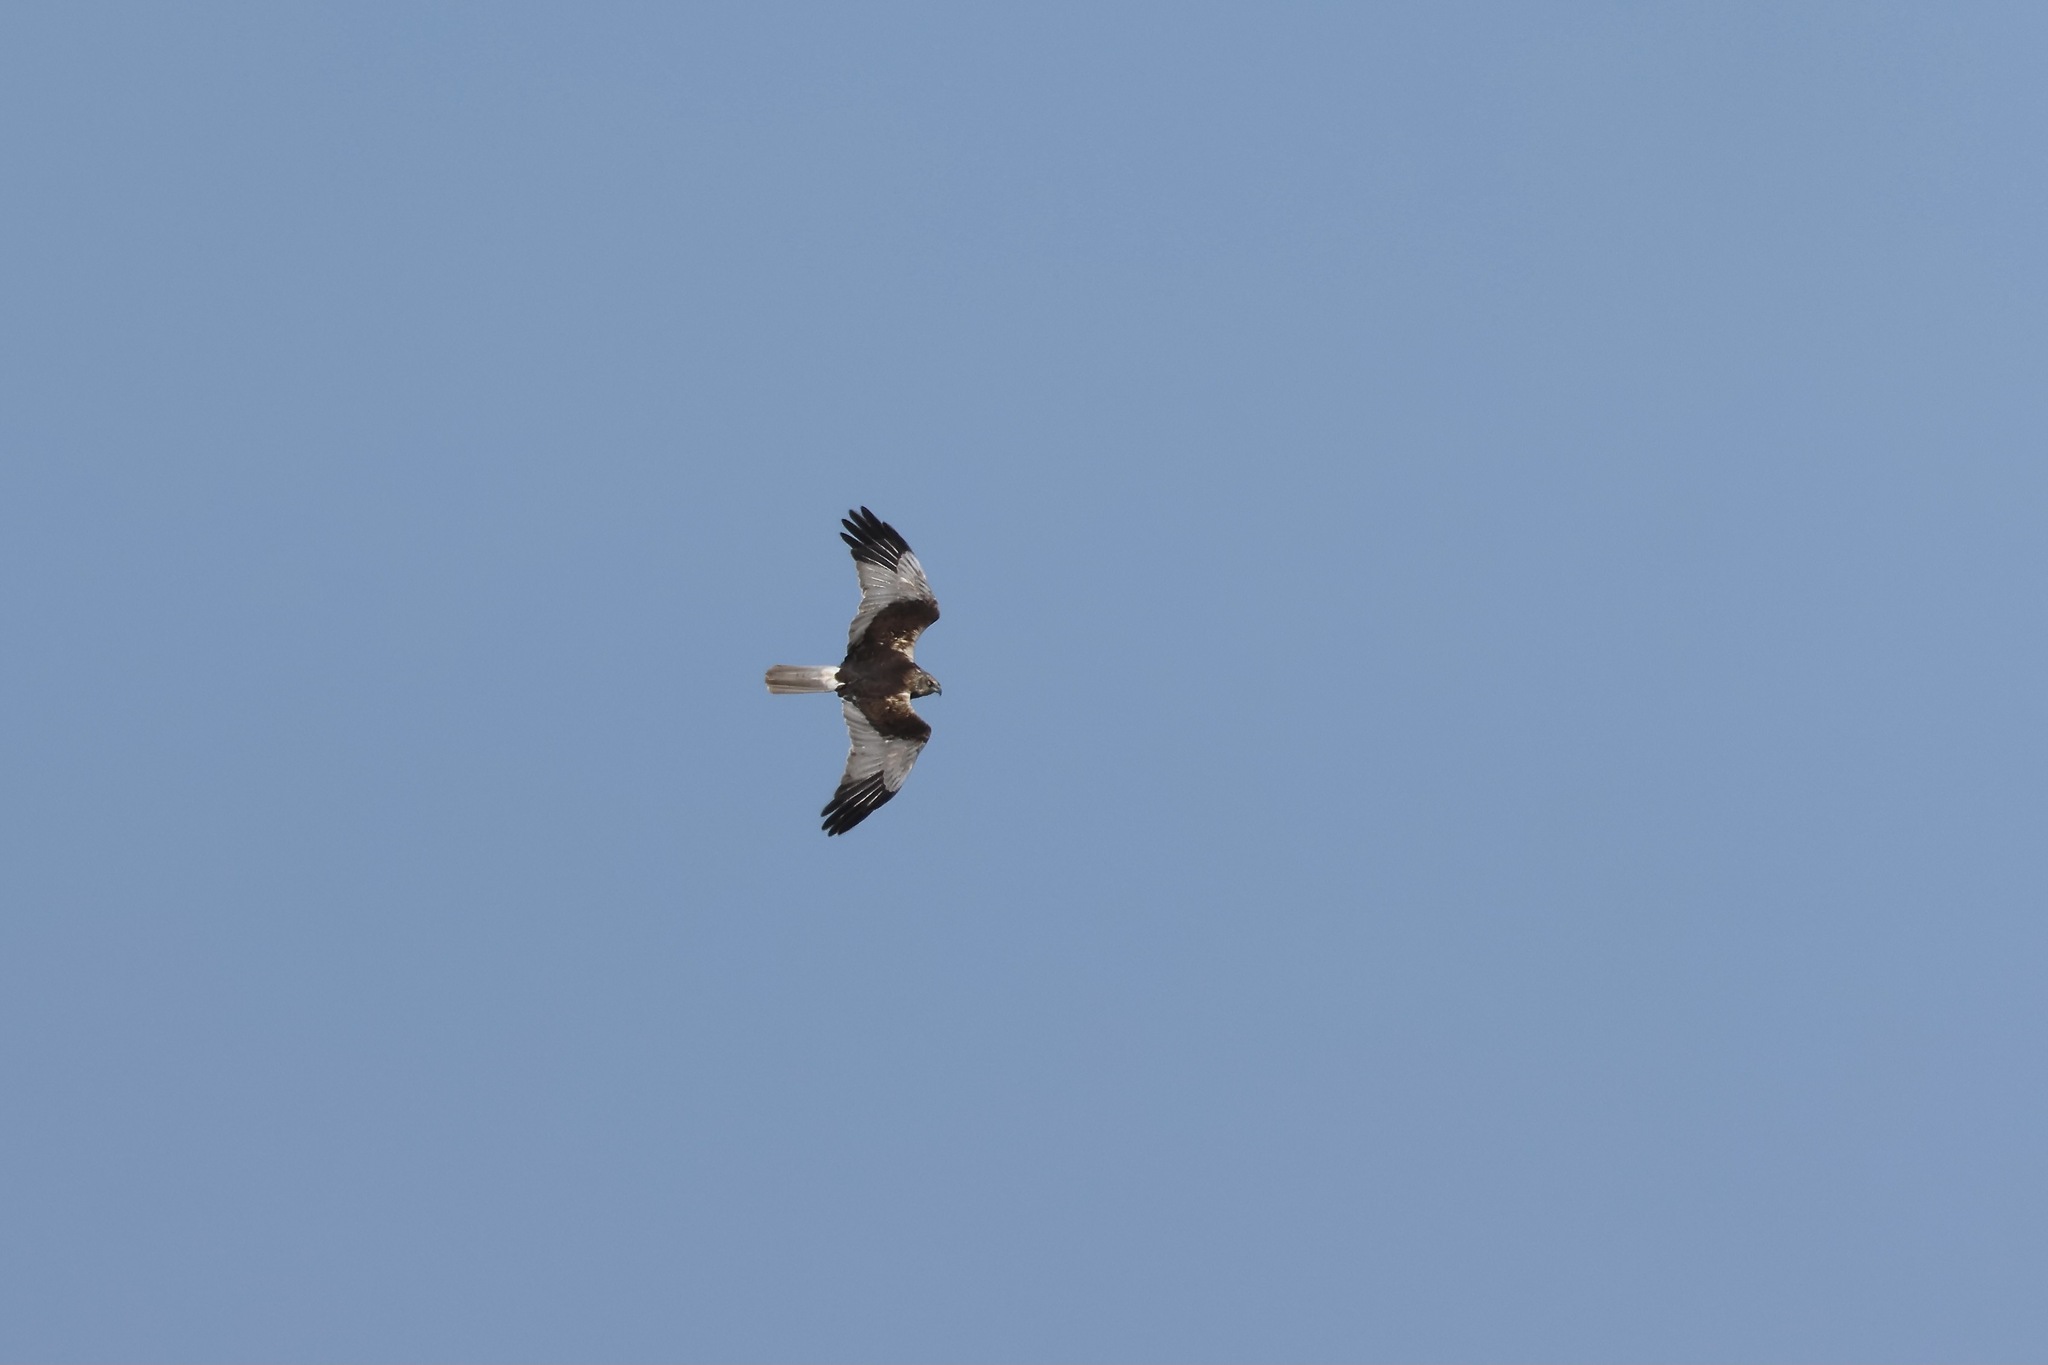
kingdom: Animalia
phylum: Chordata
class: Aves
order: Accipitriformes
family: Accipitridae
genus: Circus
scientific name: Circus aeruginosus
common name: Western marsh harrier
